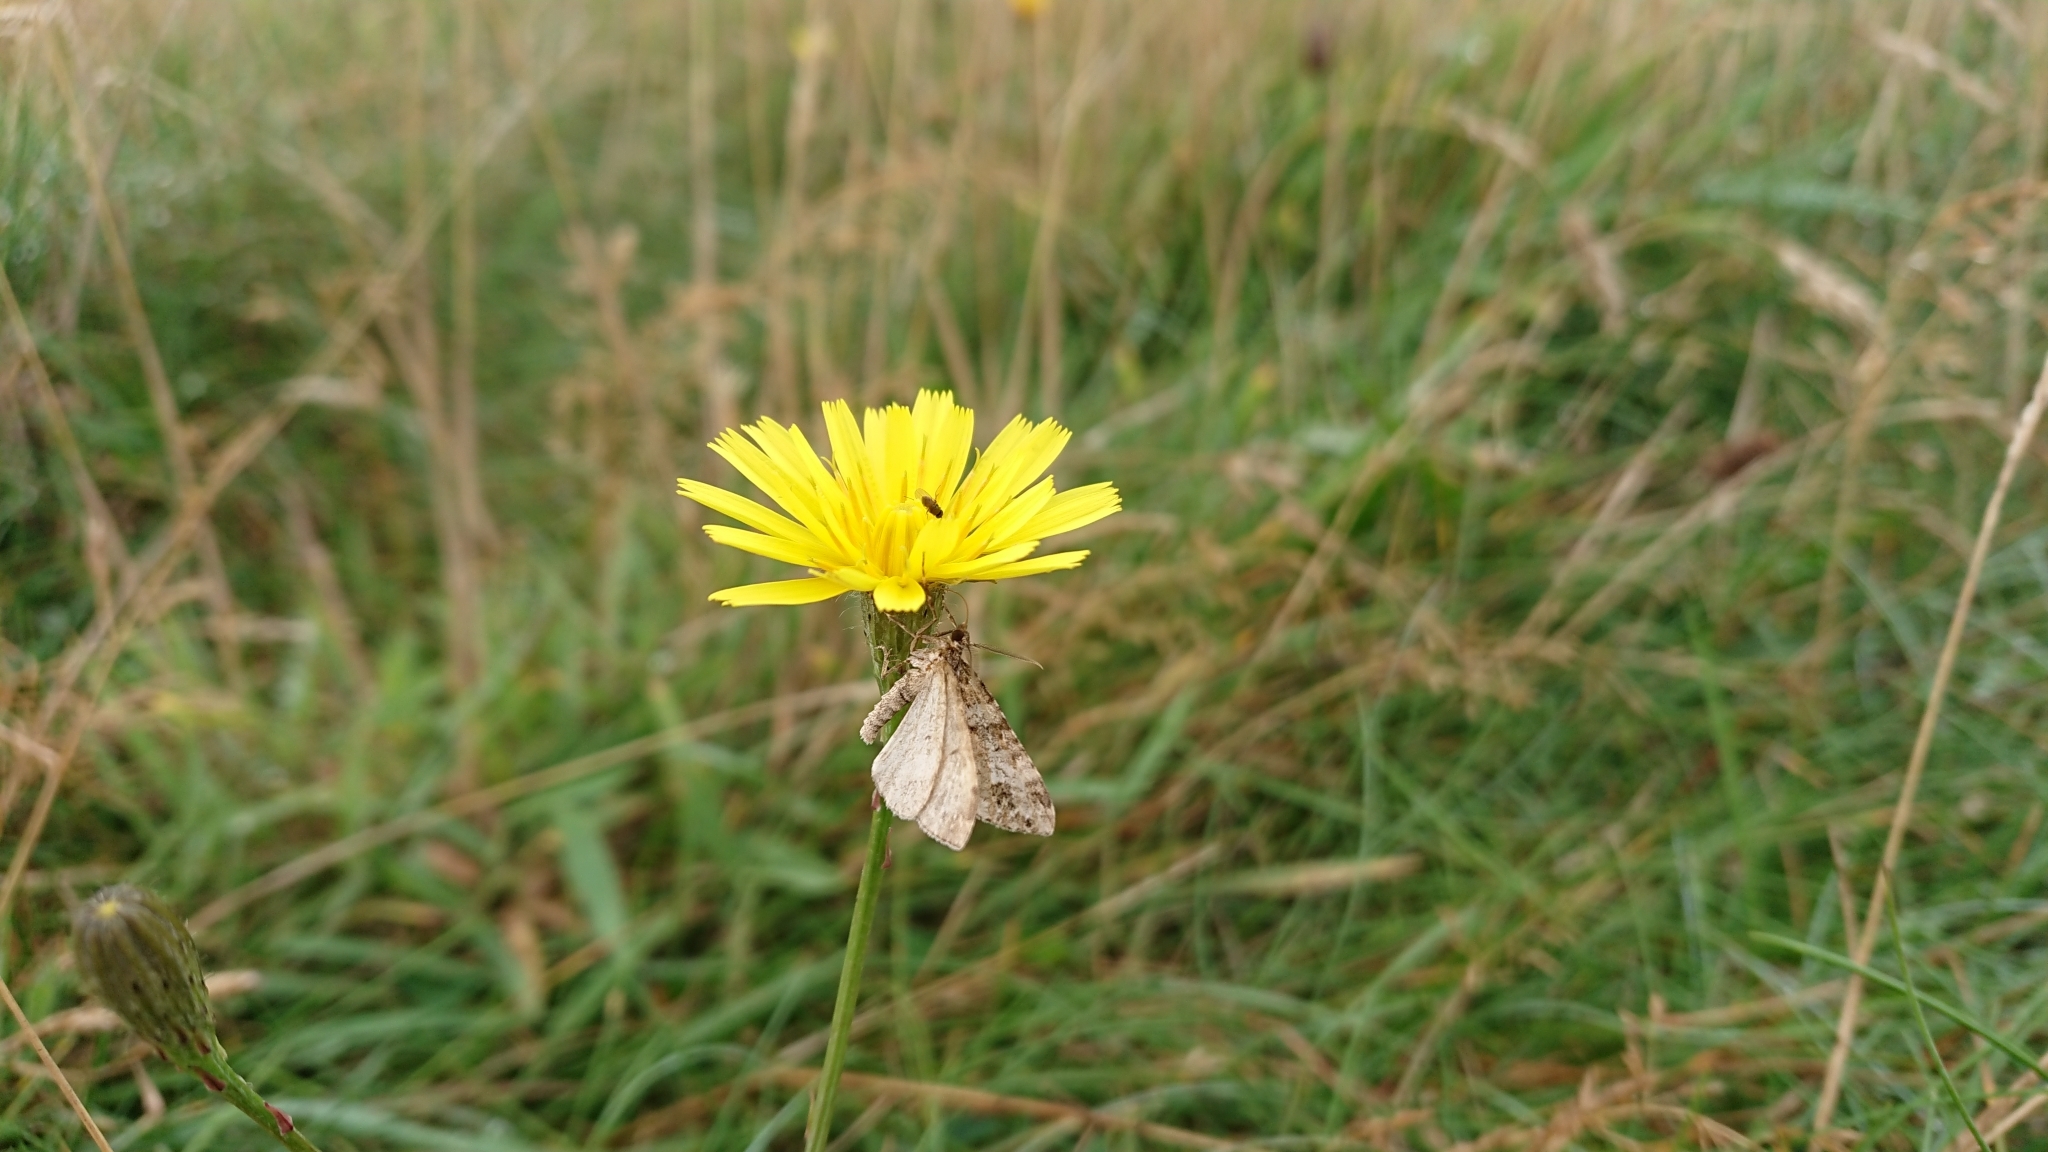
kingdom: Animalia
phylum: Arthropoda
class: Insecta
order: Lepidoptera
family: Geometridae
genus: Perizoma
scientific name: Perizoma didymata
